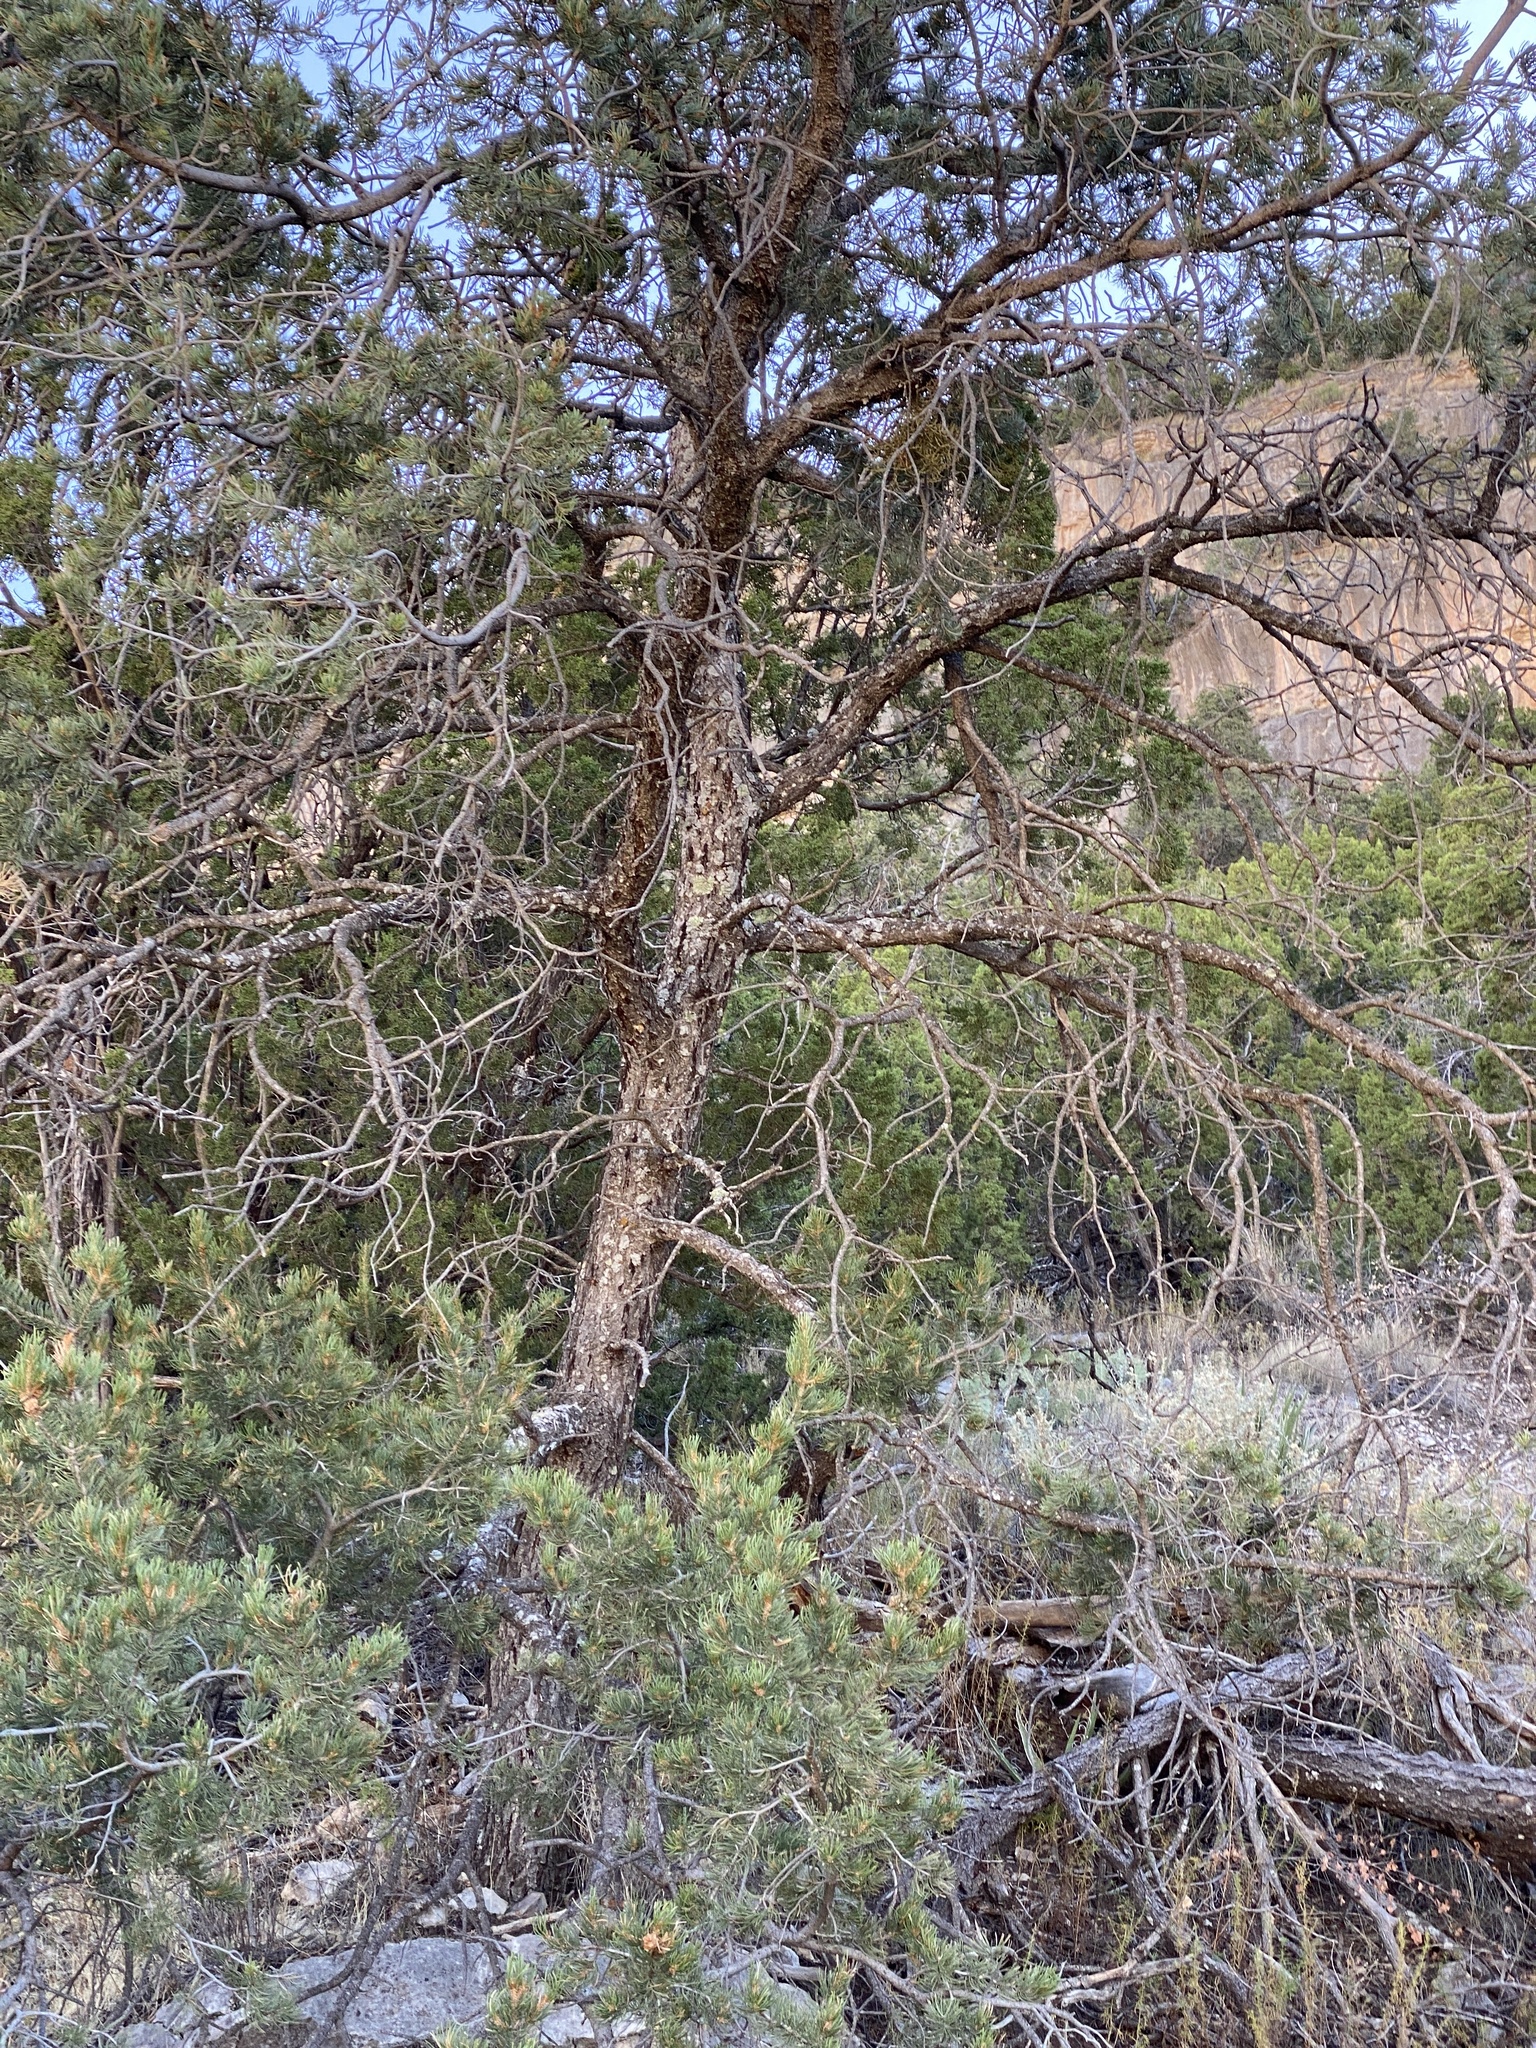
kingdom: Plantae
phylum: Tracheophyta
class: Pinopsida
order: Pinales
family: Pinaceae
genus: Pinus
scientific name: Pinus edulis
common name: Colorado pinyon
